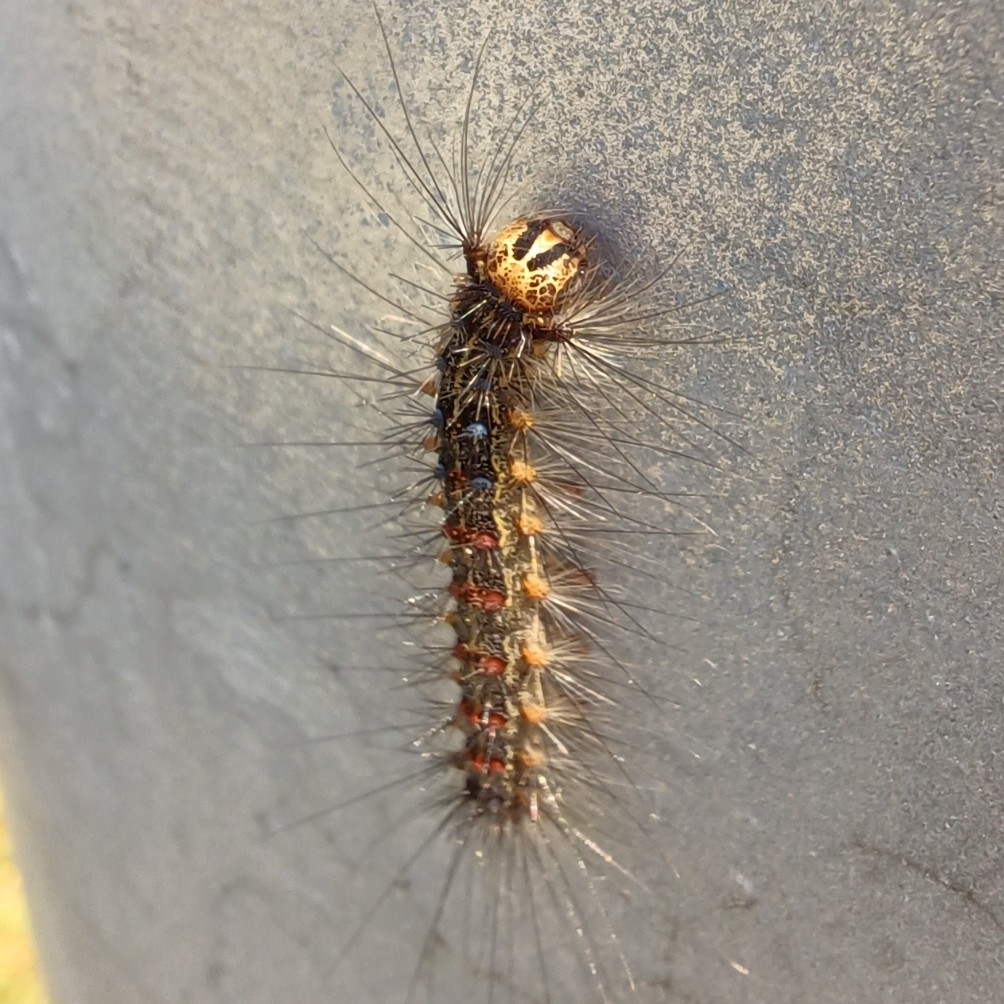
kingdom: Animalia
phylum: Arthropoda
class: Insecta
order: Lepidoptera
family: Erebidae
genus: Lymantria
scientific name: Lymantria dispar
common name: Gypsy moth
